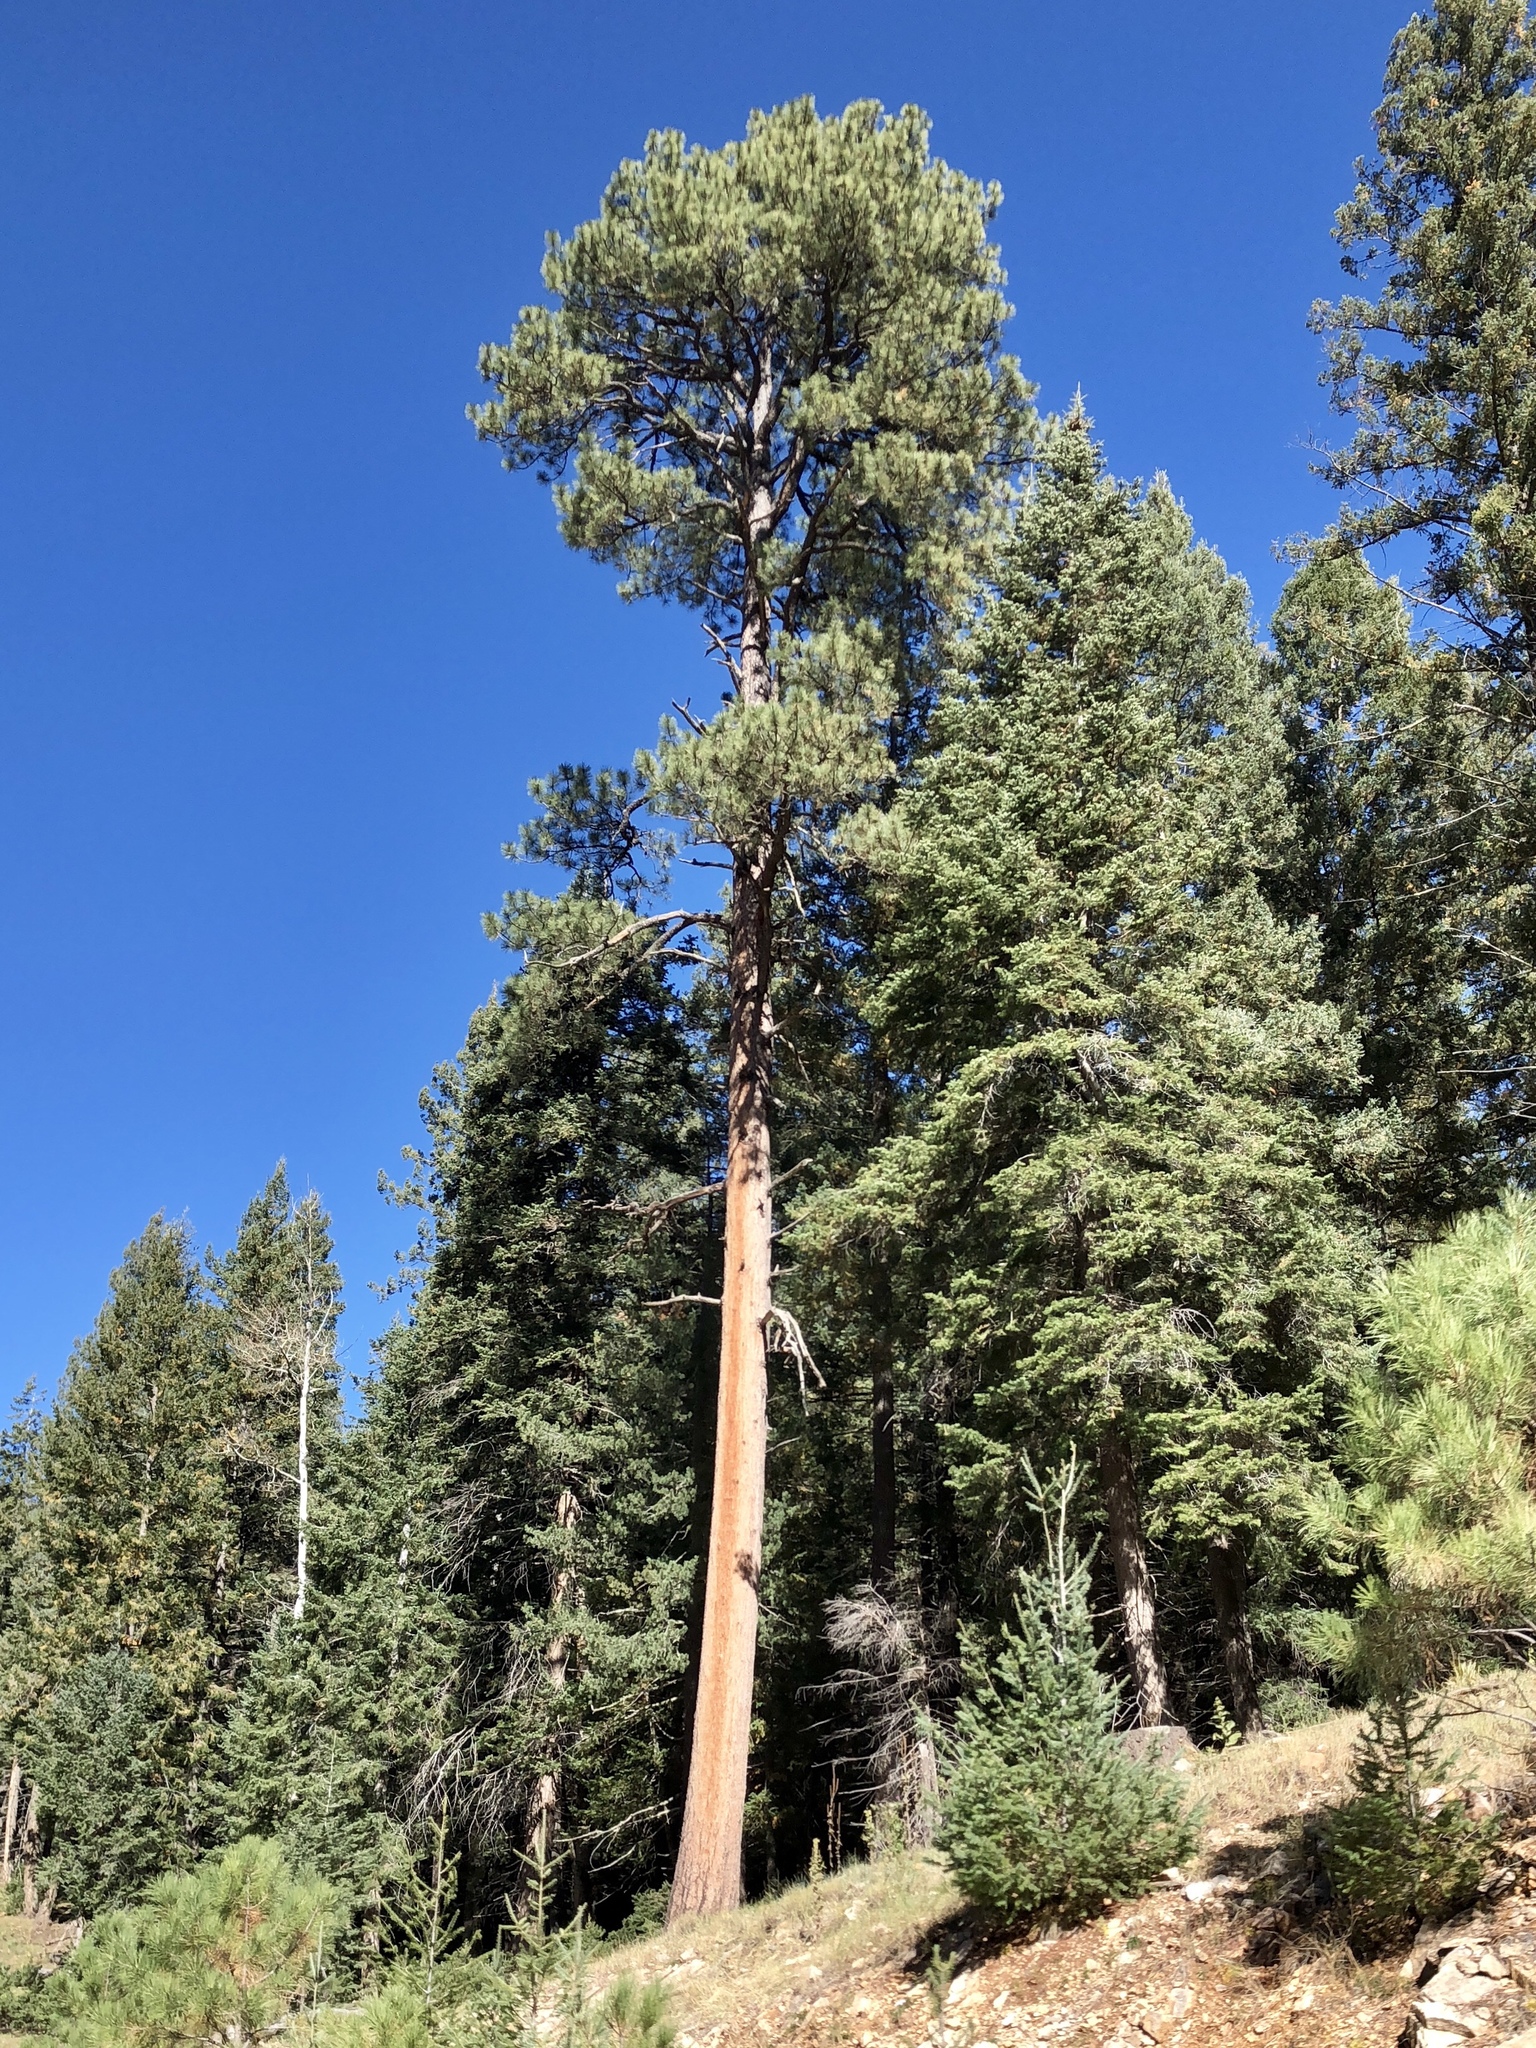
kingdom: Plantae
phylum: Tracheophyta
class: Pinopsida
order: Pinales
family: Pinaceae
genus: Pinus
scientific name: Pinus ponderosa
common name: Western yellow-pine
